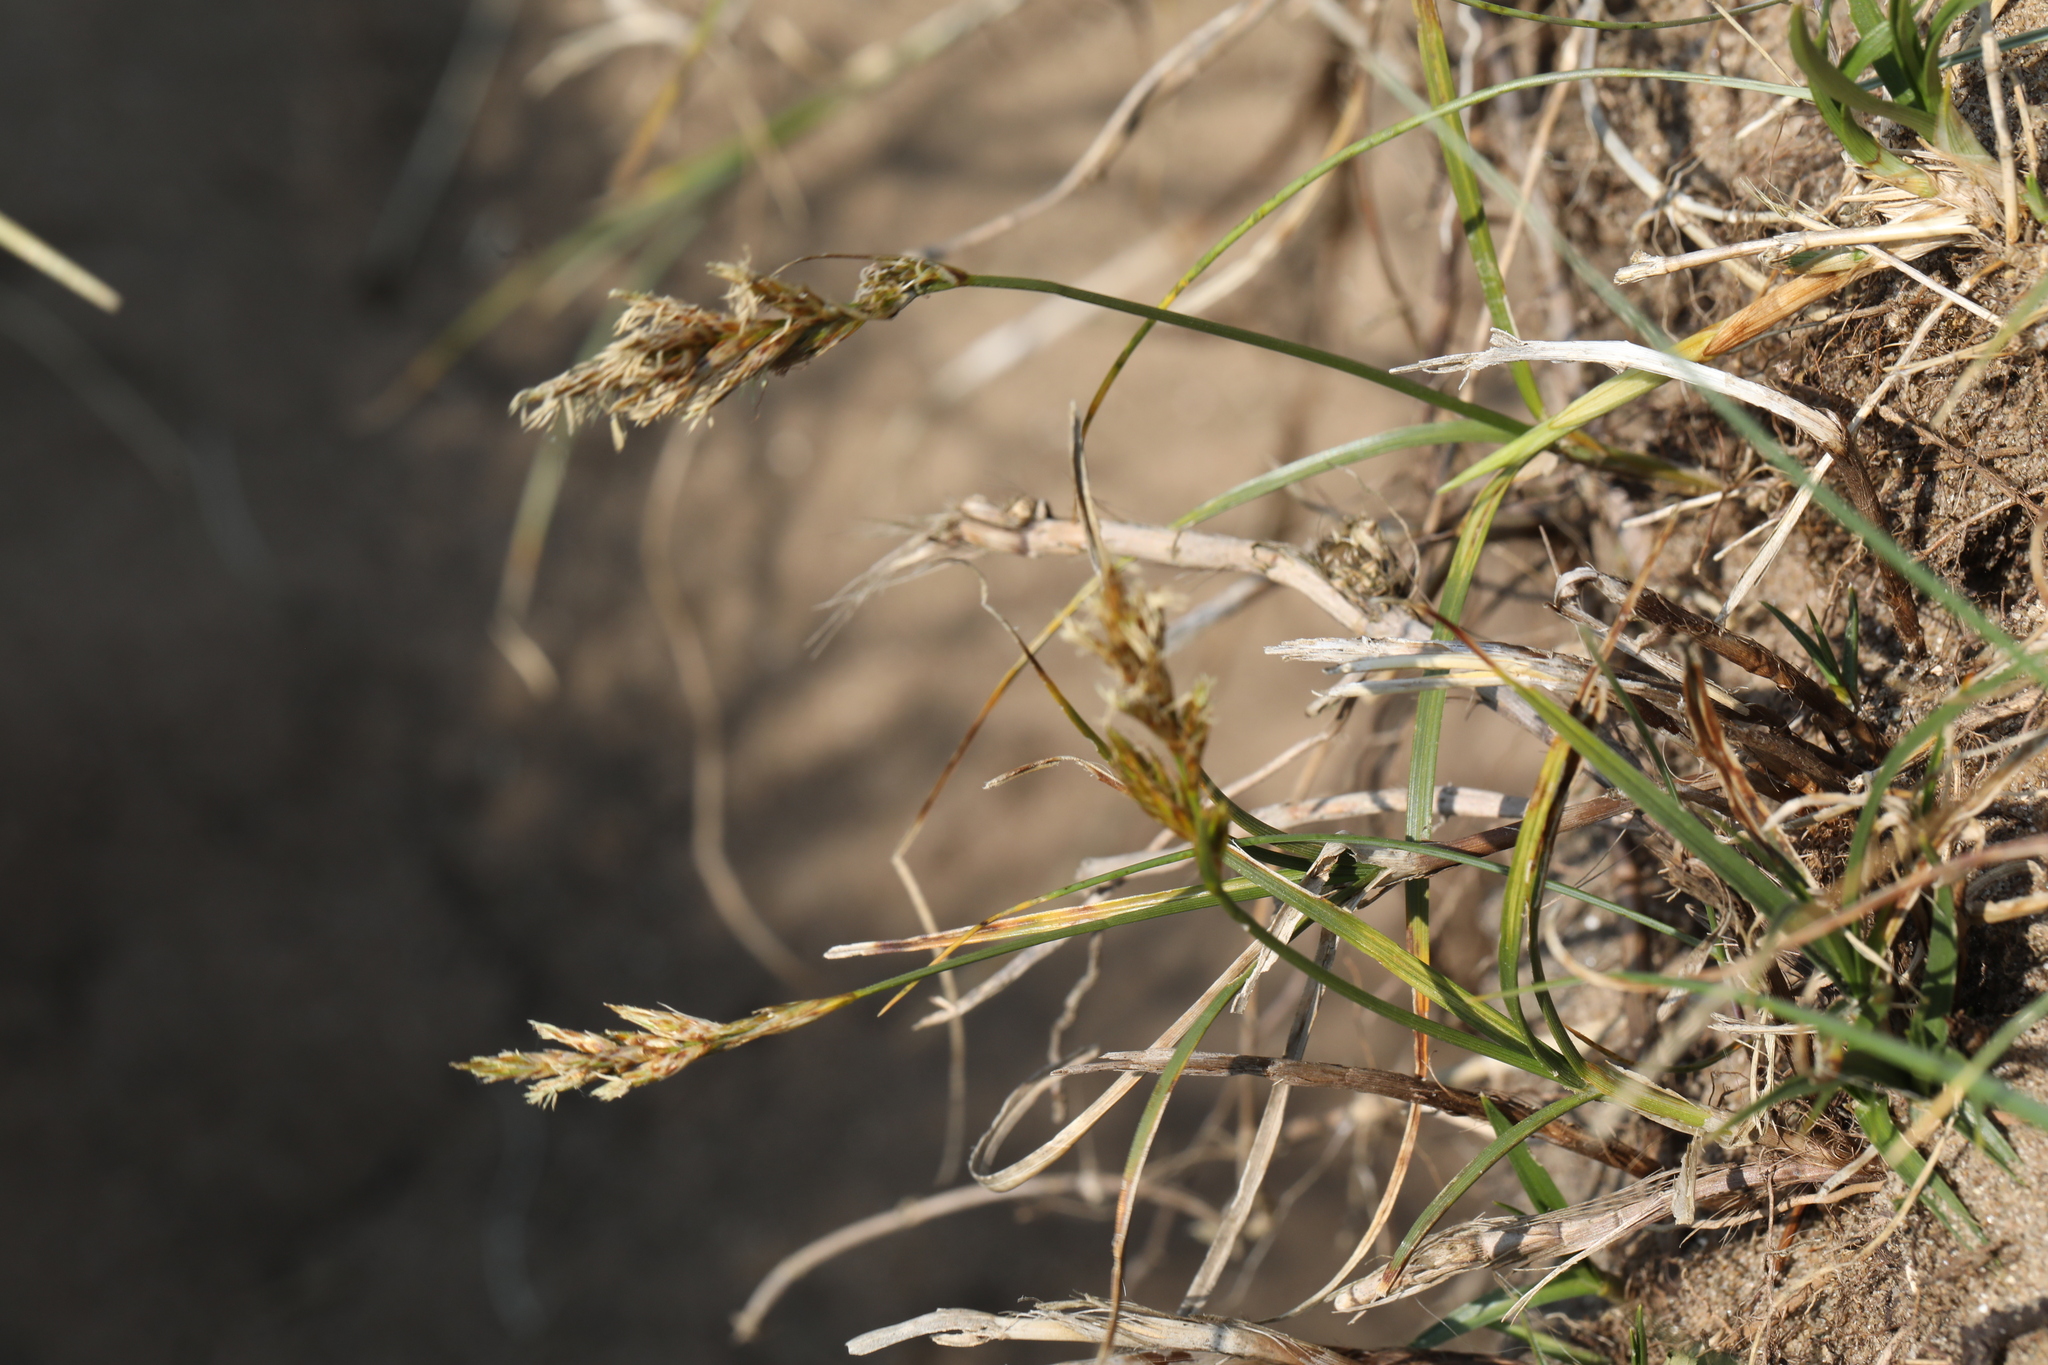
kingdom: Plantae
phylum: Tracheophyta
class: Liliopsida
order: Poales
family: Cyperaceae
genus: Carex
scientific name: Carex arenaria
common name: Sand sedge
